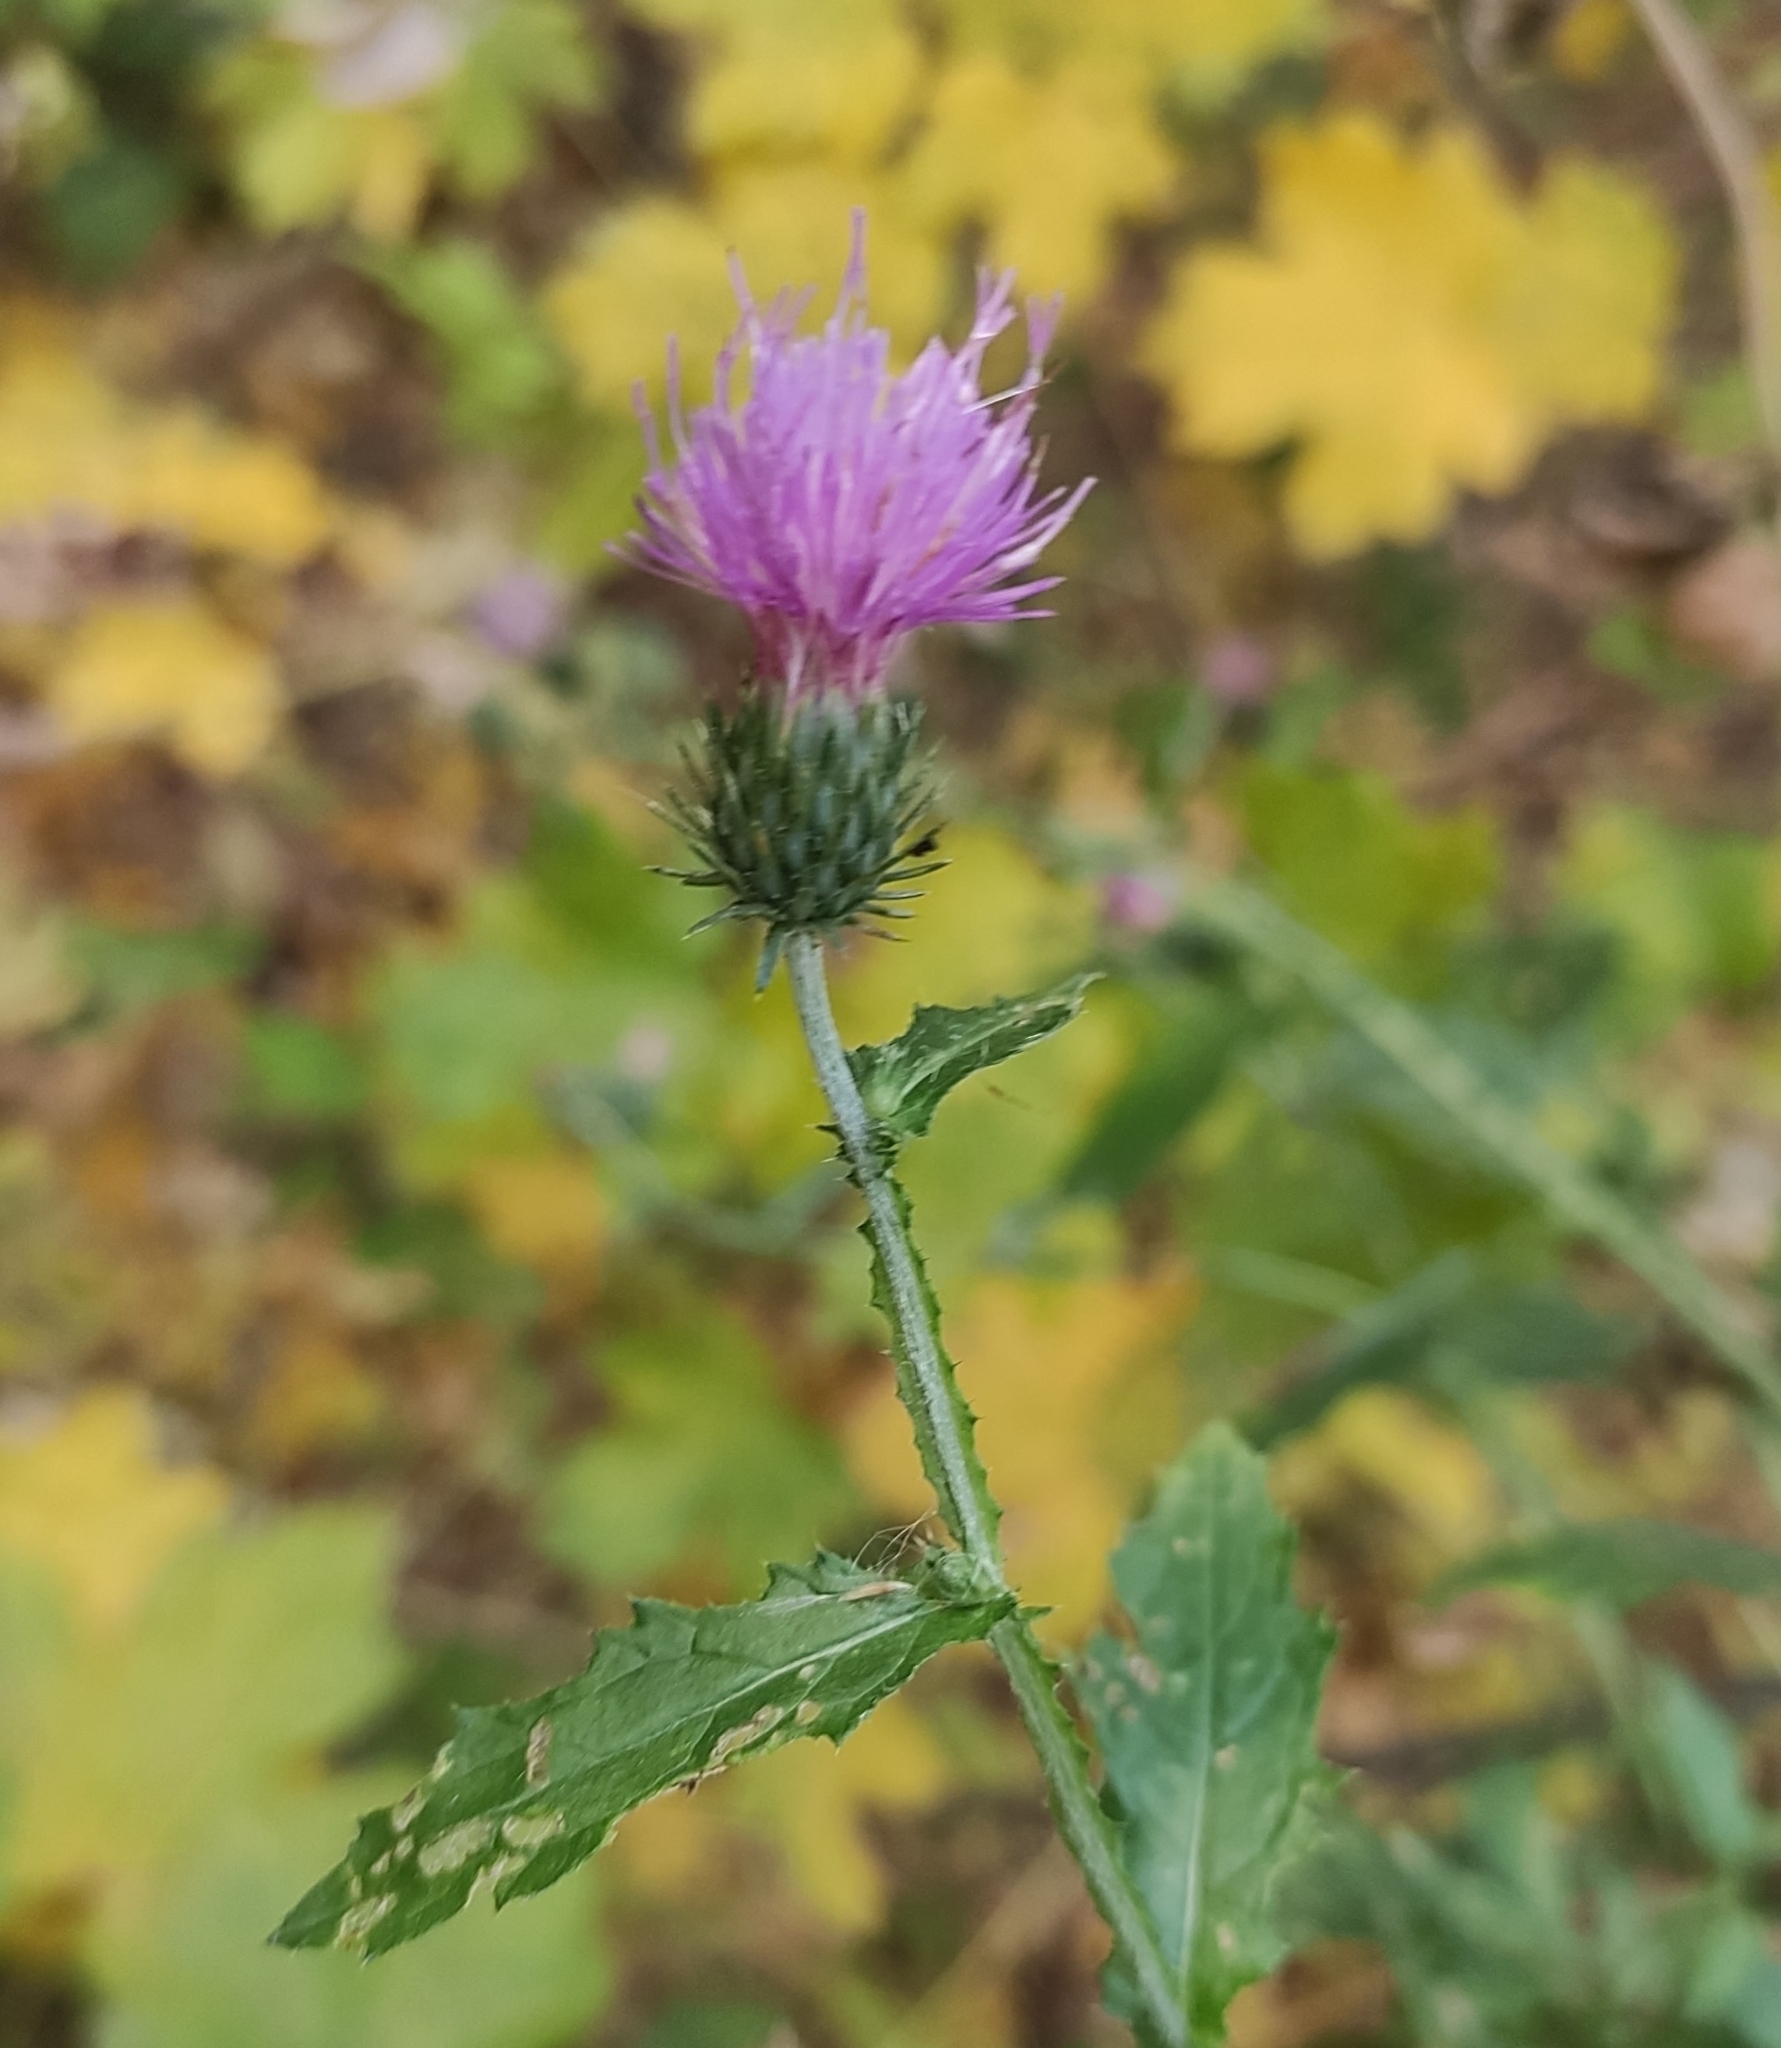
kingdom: Plantae
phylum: Tracheophyta
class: Magnoliopsida
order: Asterales
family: Asteraceae
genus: Carduus
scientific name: Carduus crispus
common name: Welted thistle
